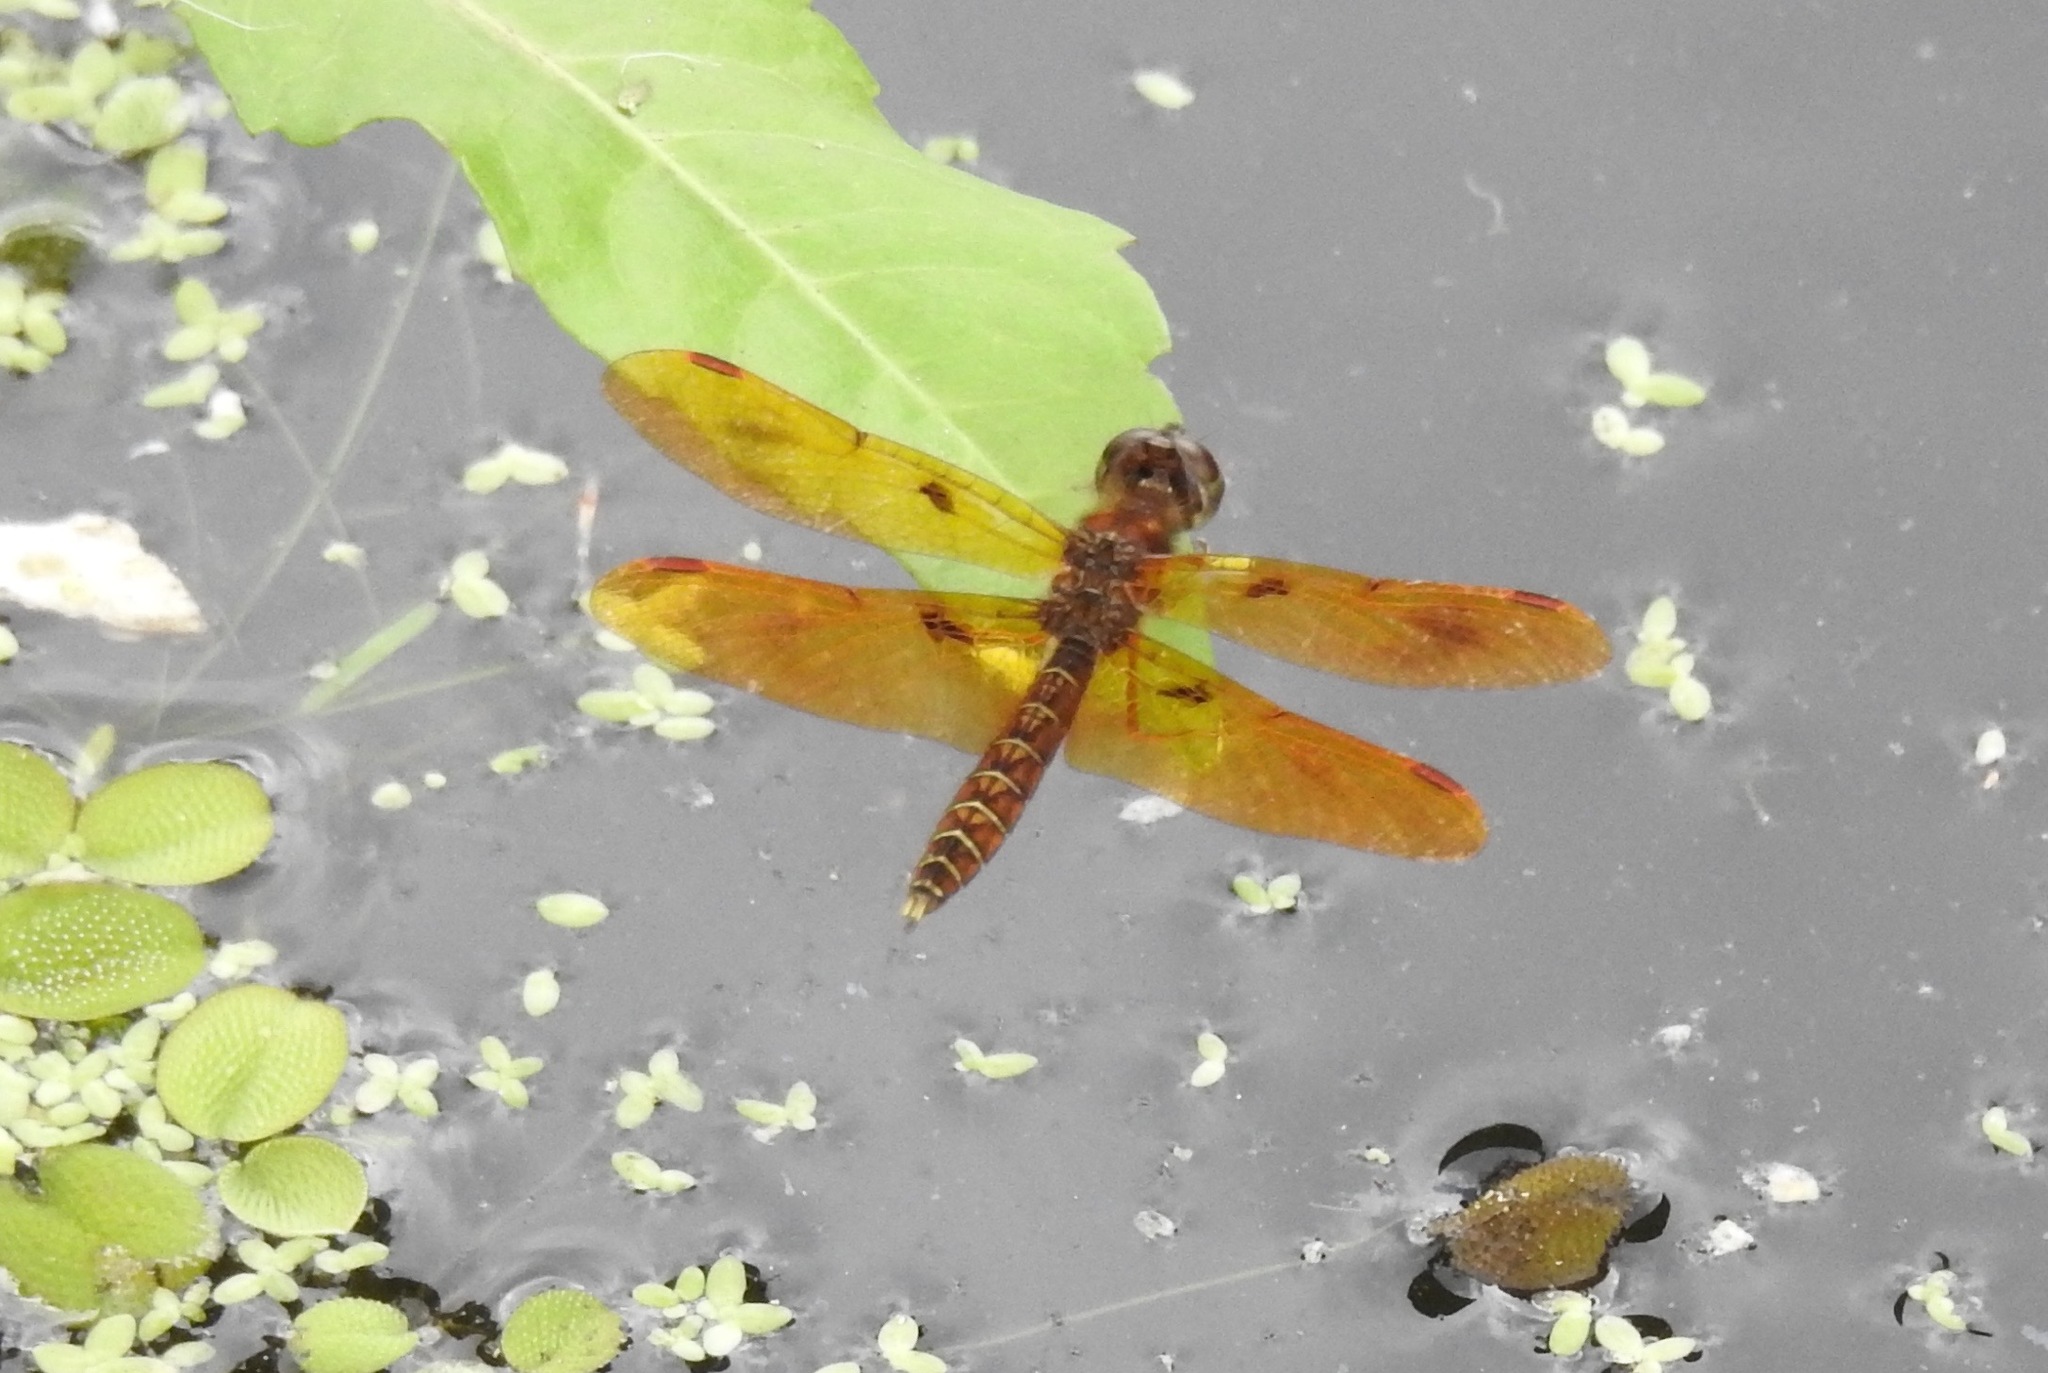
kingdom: Animalia
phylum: Arthropoda
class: Insecta
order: Odonata
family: Libellulidae
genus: Perithemis
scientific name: Perithemis tenera
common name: Eastern amberwing
